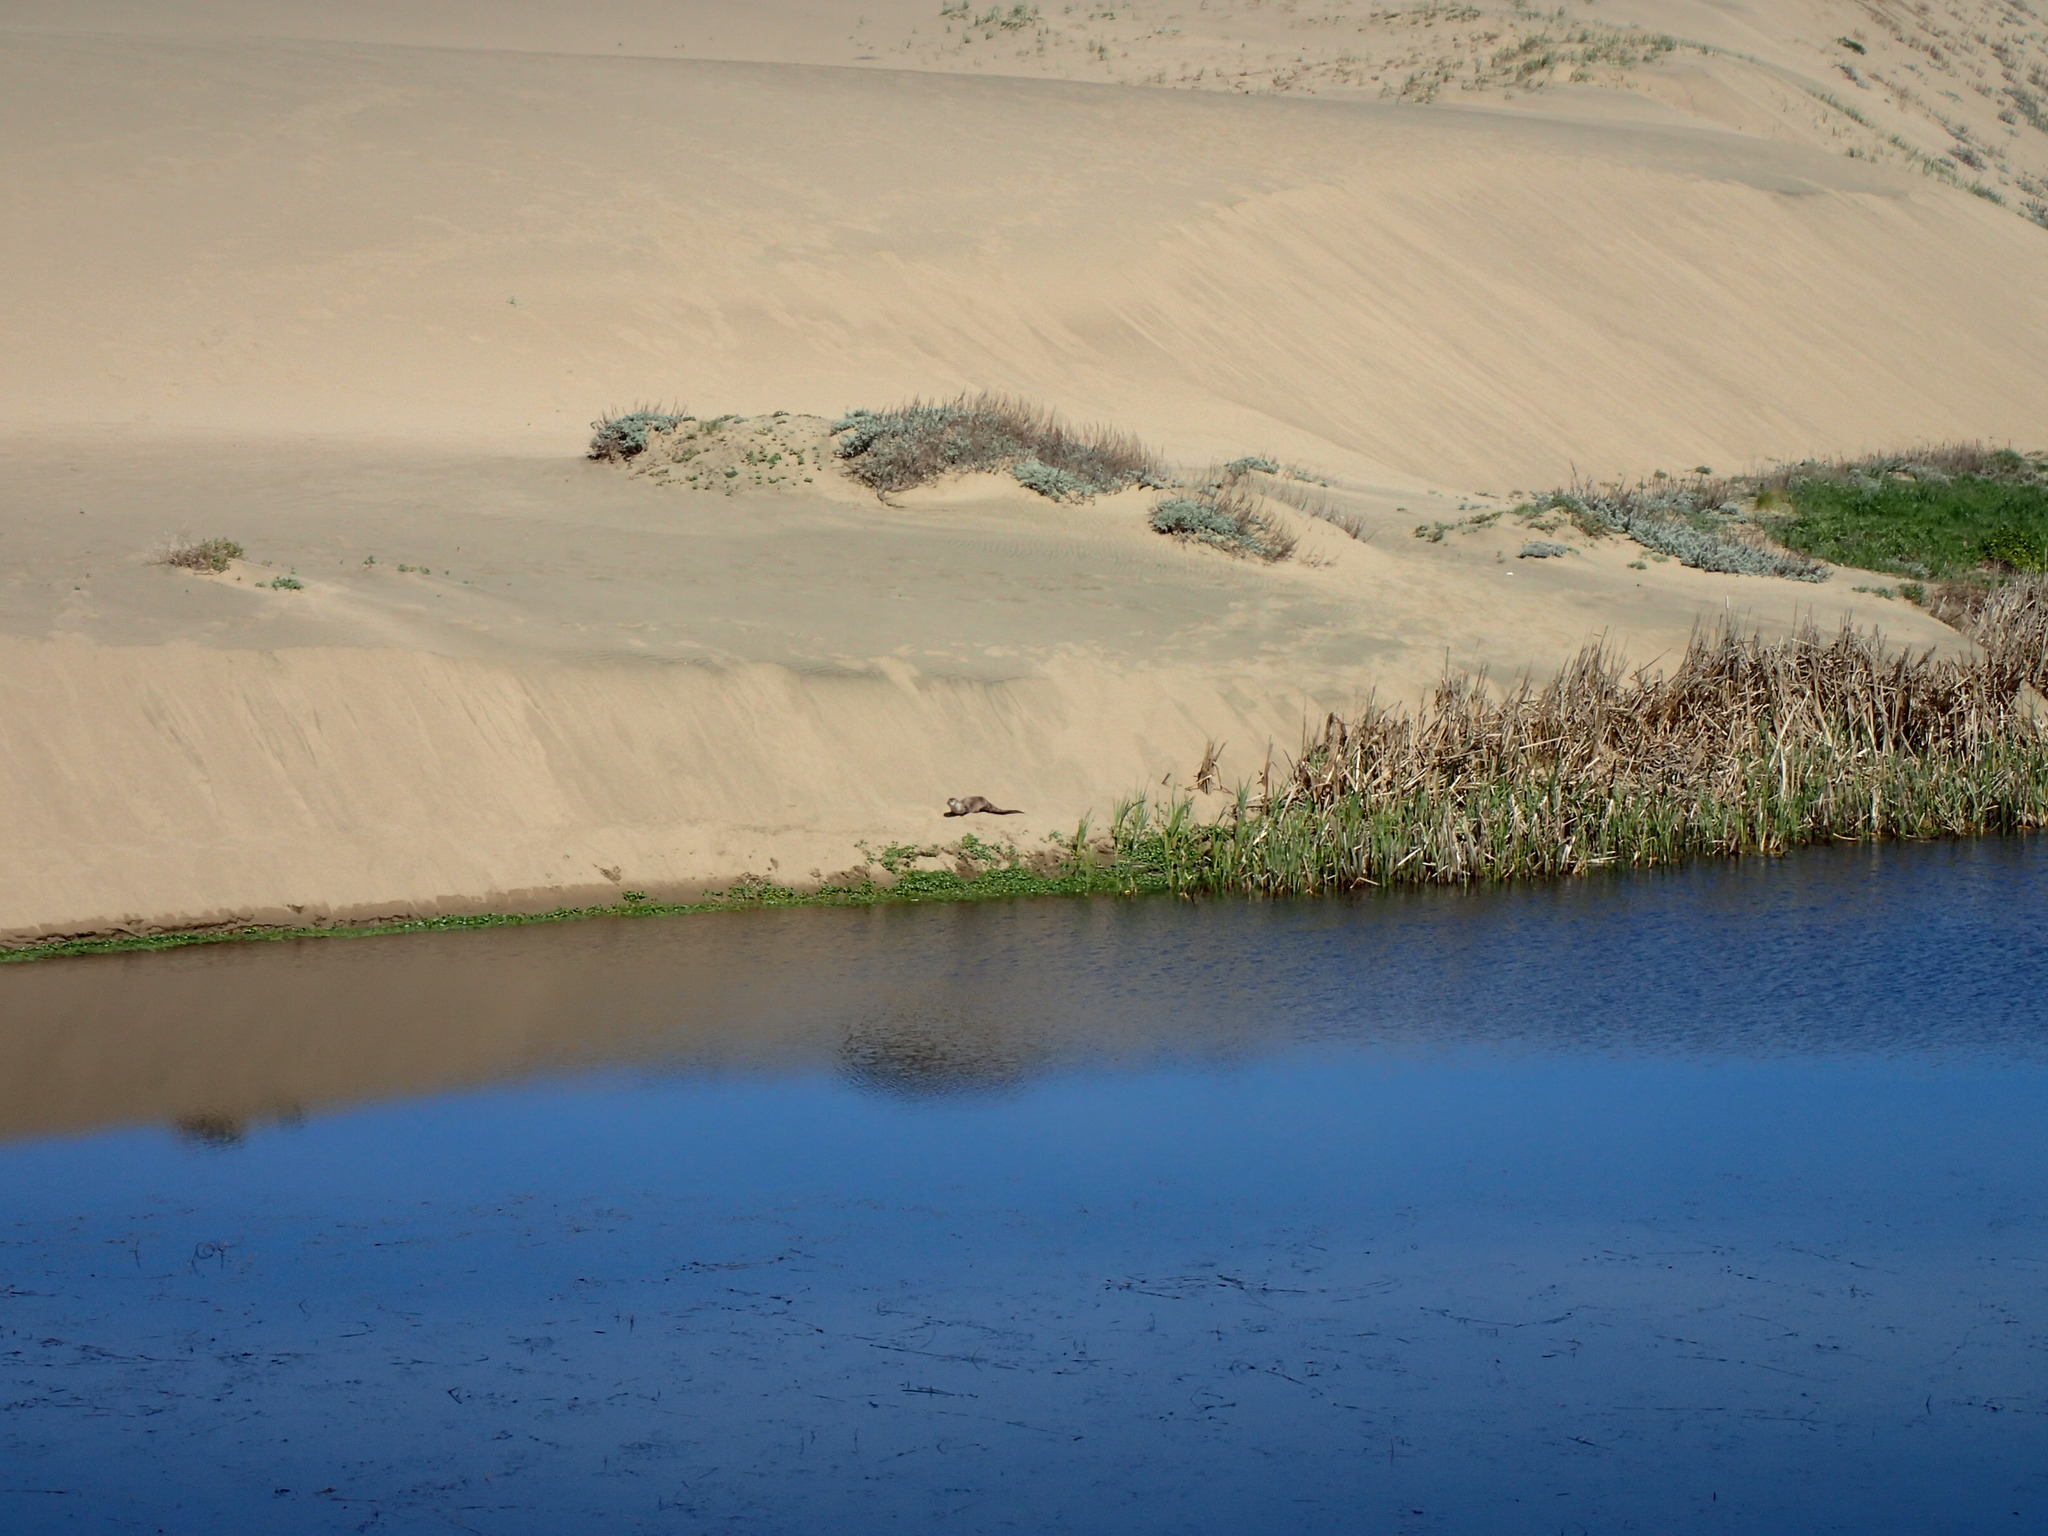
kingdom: Animalia
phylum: Chordata
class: Mammalia
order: Carnivora
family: Mustelidae
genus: Lontra
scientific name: Lontra canadensis
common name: North american river otter
